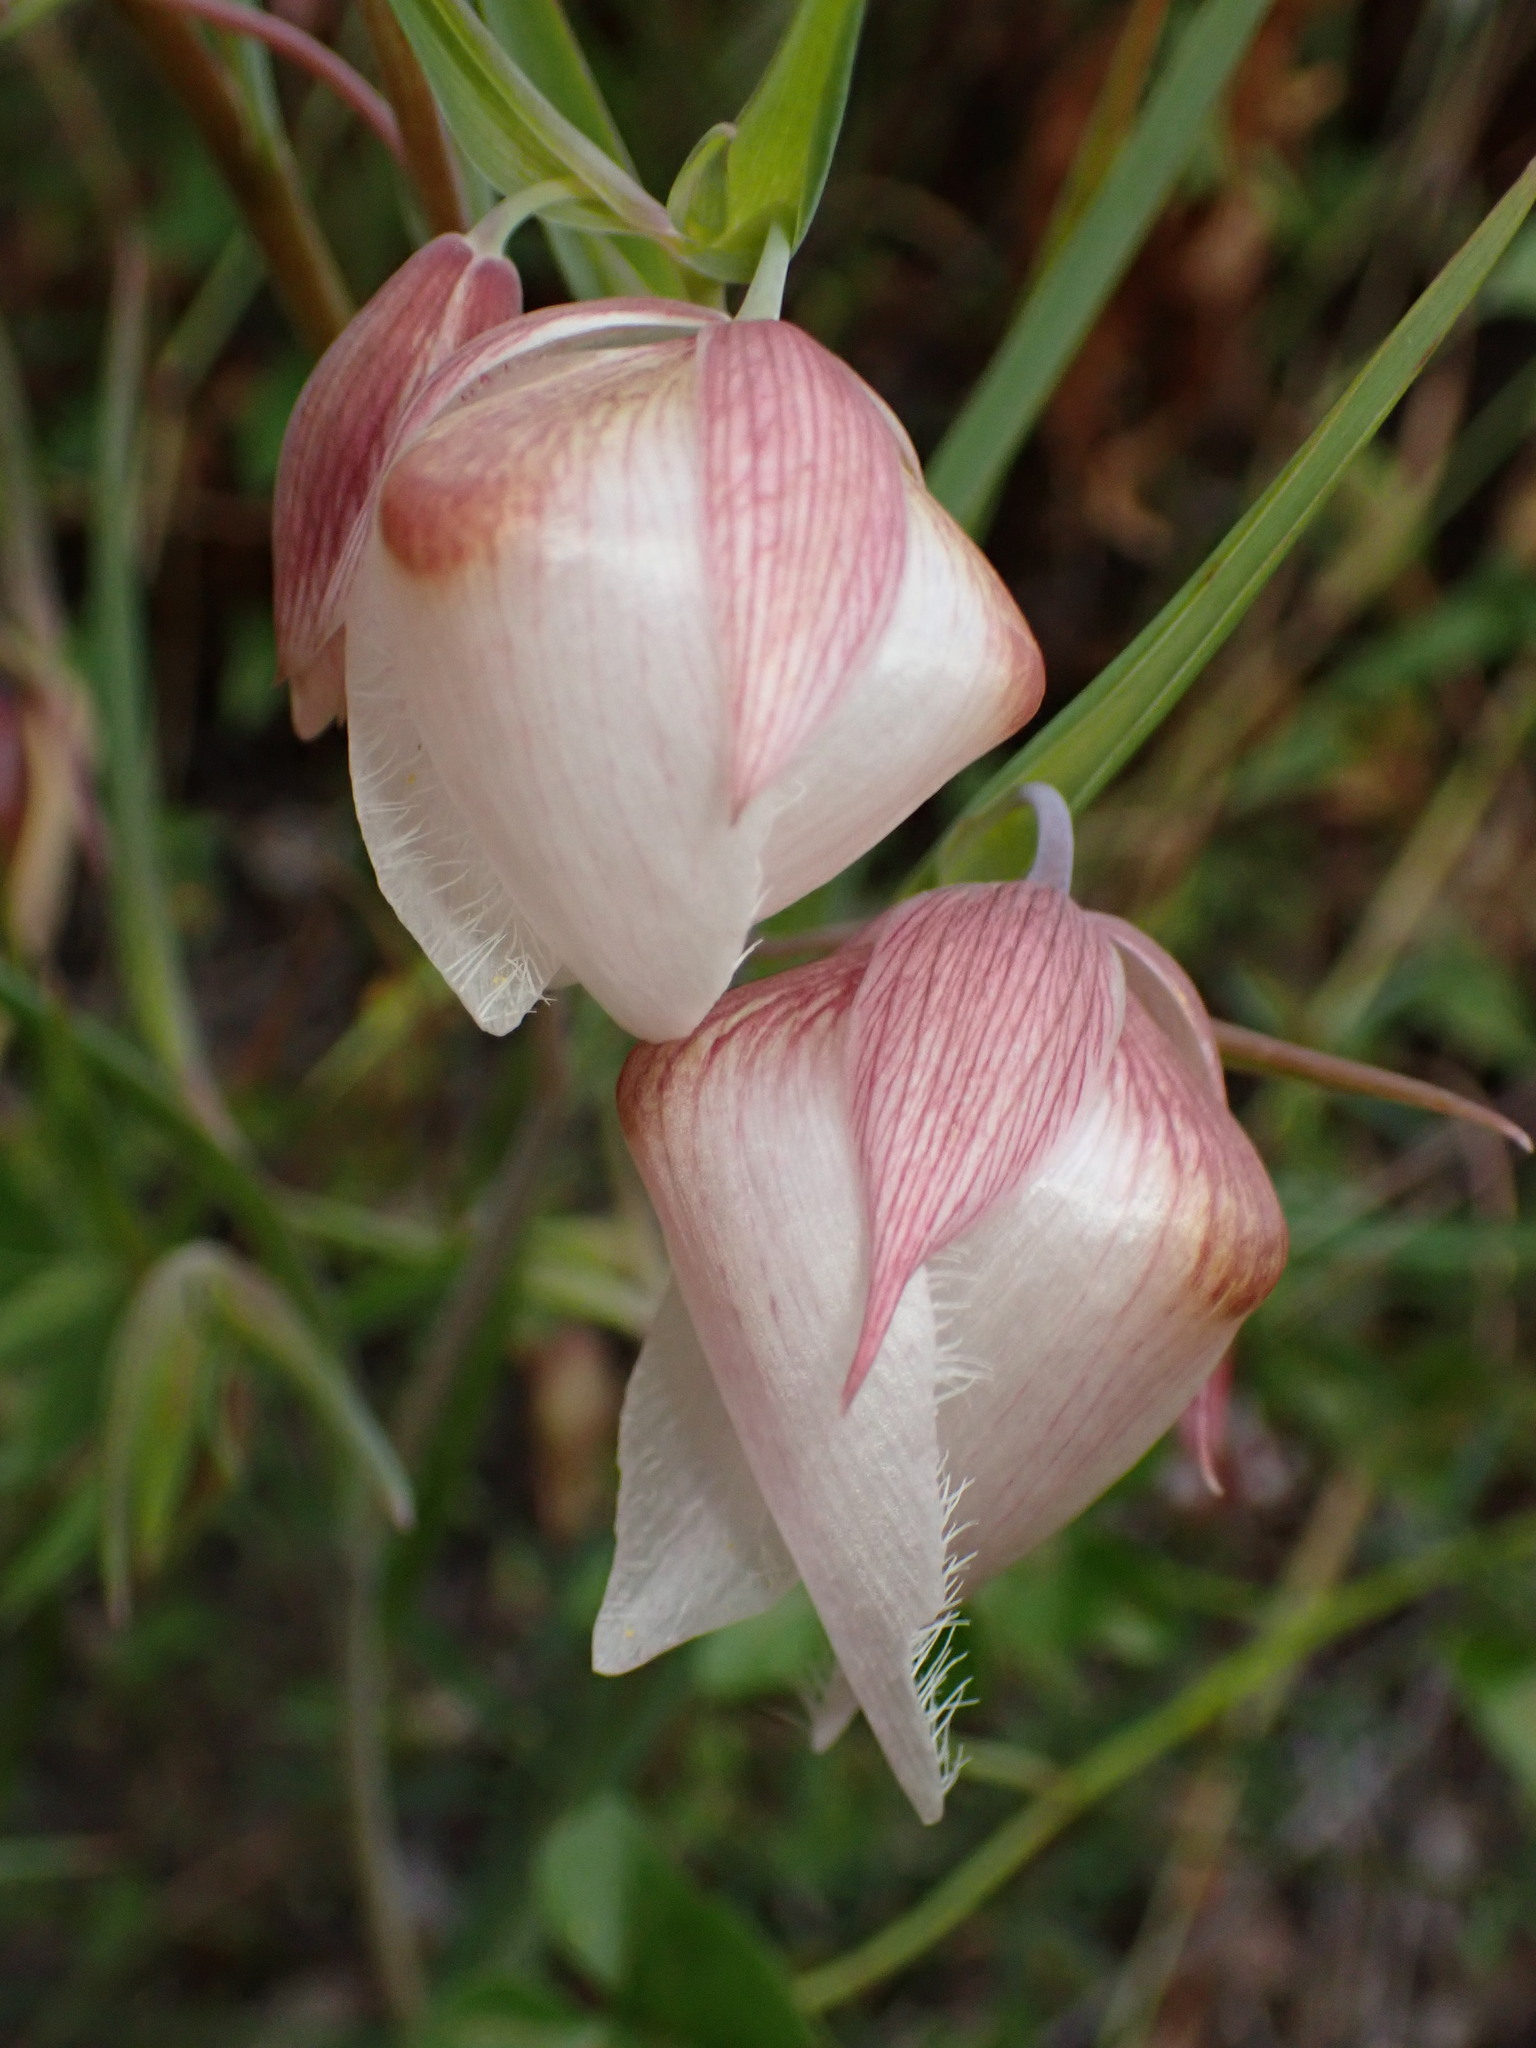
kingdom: Plantae
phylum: Tracheophyta
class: Liliopsida
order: Liliales
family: Liliaceae
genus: Calochortus
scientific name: Calochortus albus
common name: Fairy-lantern
